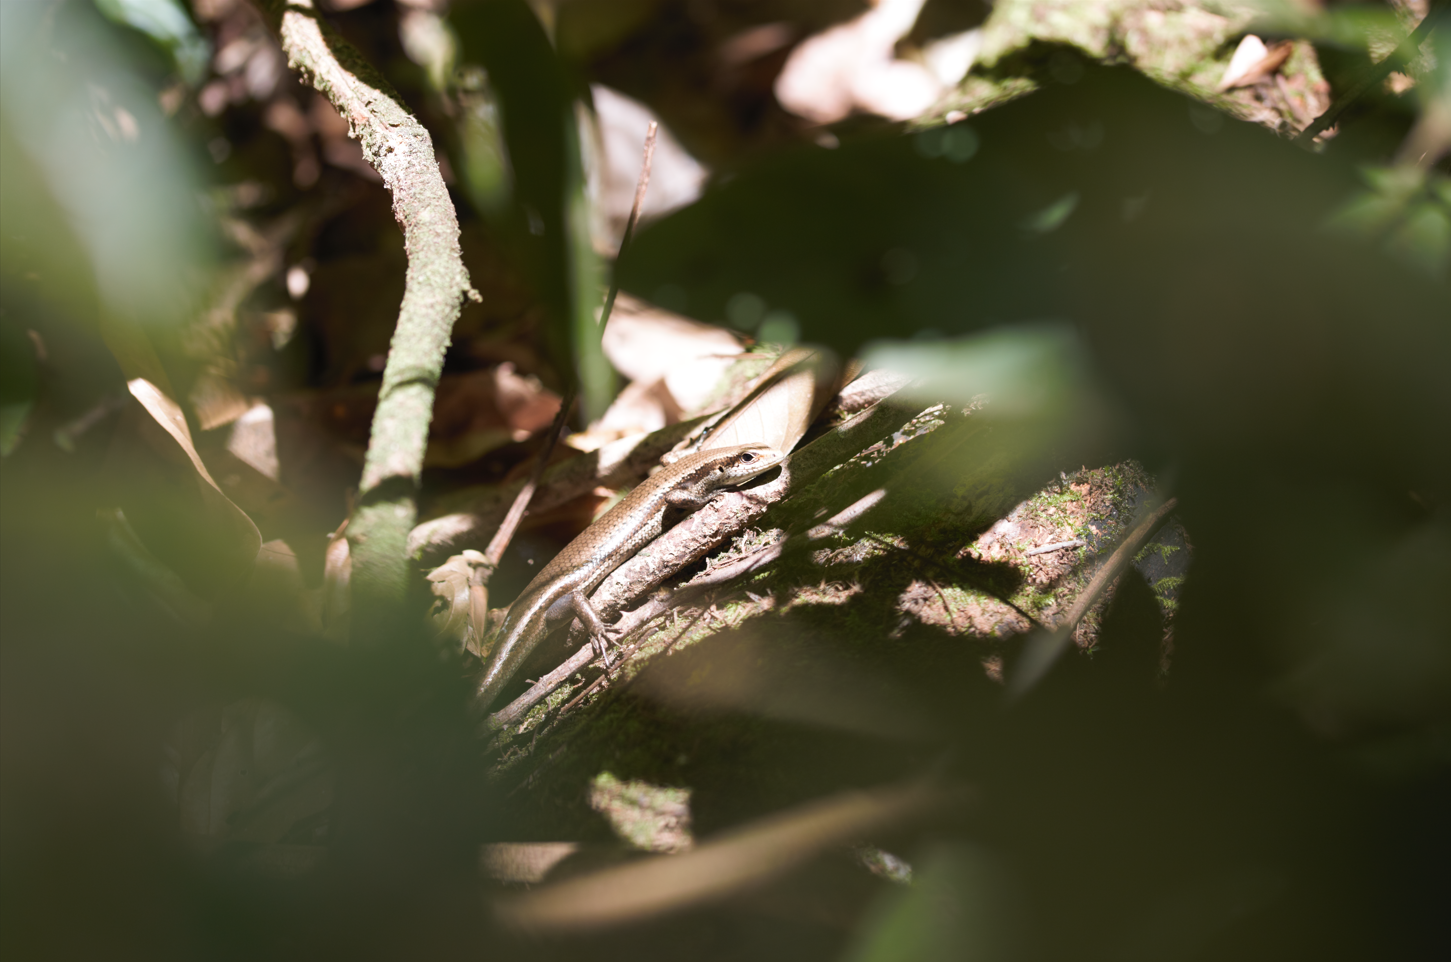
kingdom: Animalia
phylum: Chordata
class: Squamata
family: Scincidae
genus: Copeoglossum
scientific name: Copeoglossum nigropunctatum
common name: Black-spotted skink
